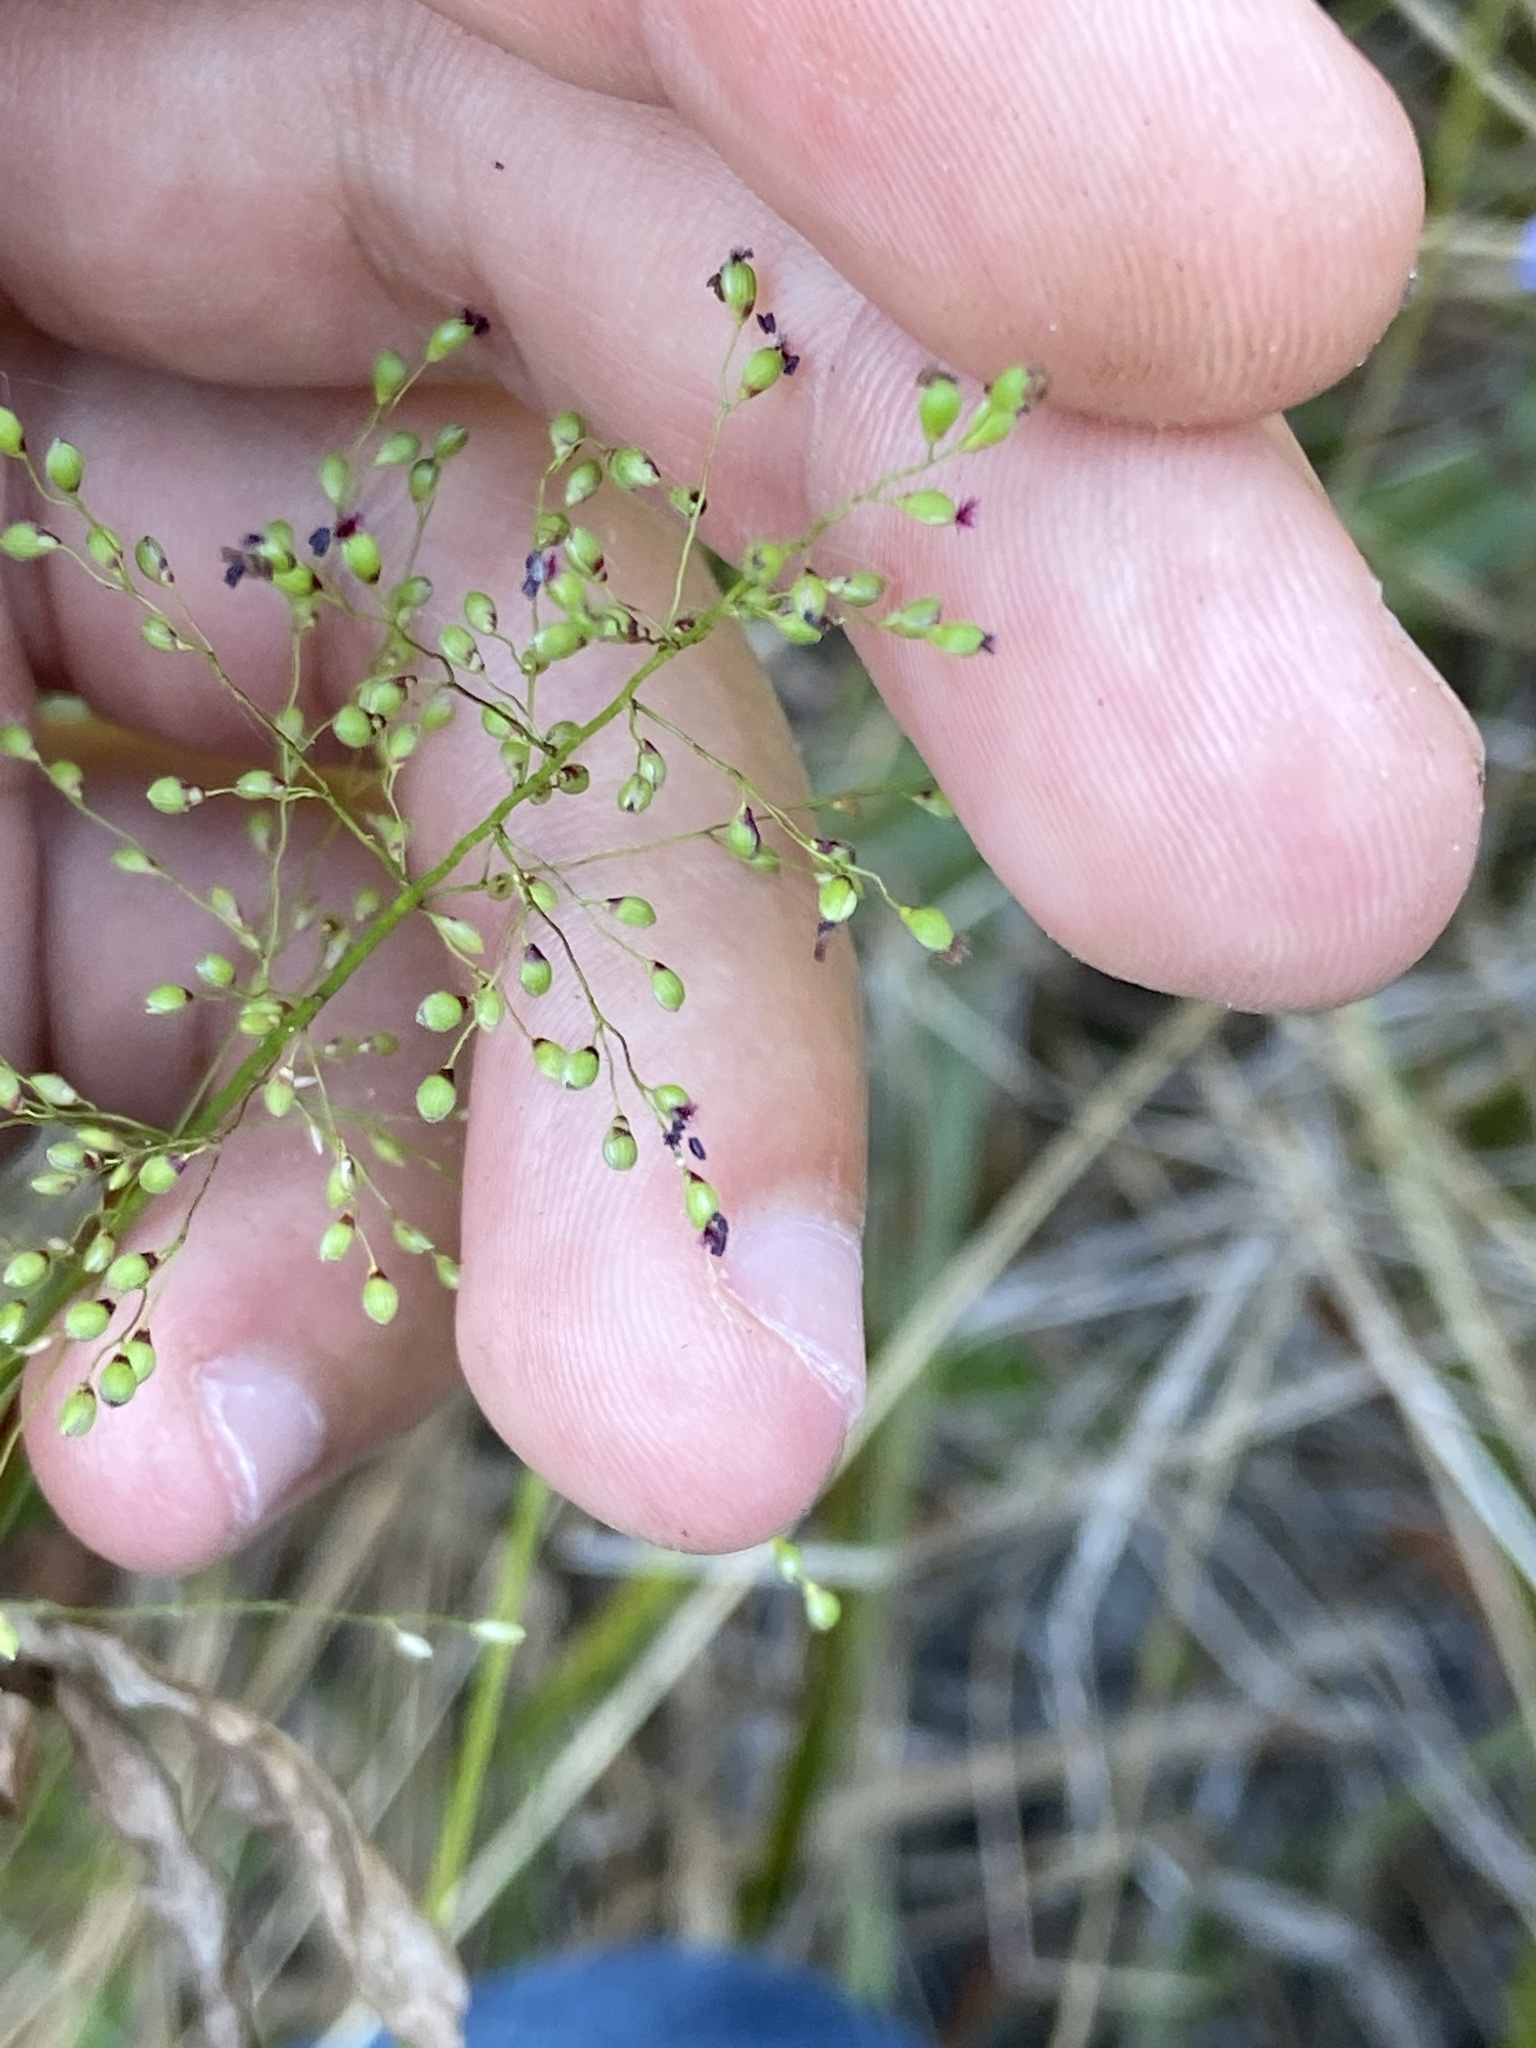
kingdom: Plantae
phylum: Tracheophyta
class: Liliopsida
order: Poales
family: Poaceae
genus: Dichanthelium
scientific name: Dichanthelium tenue
